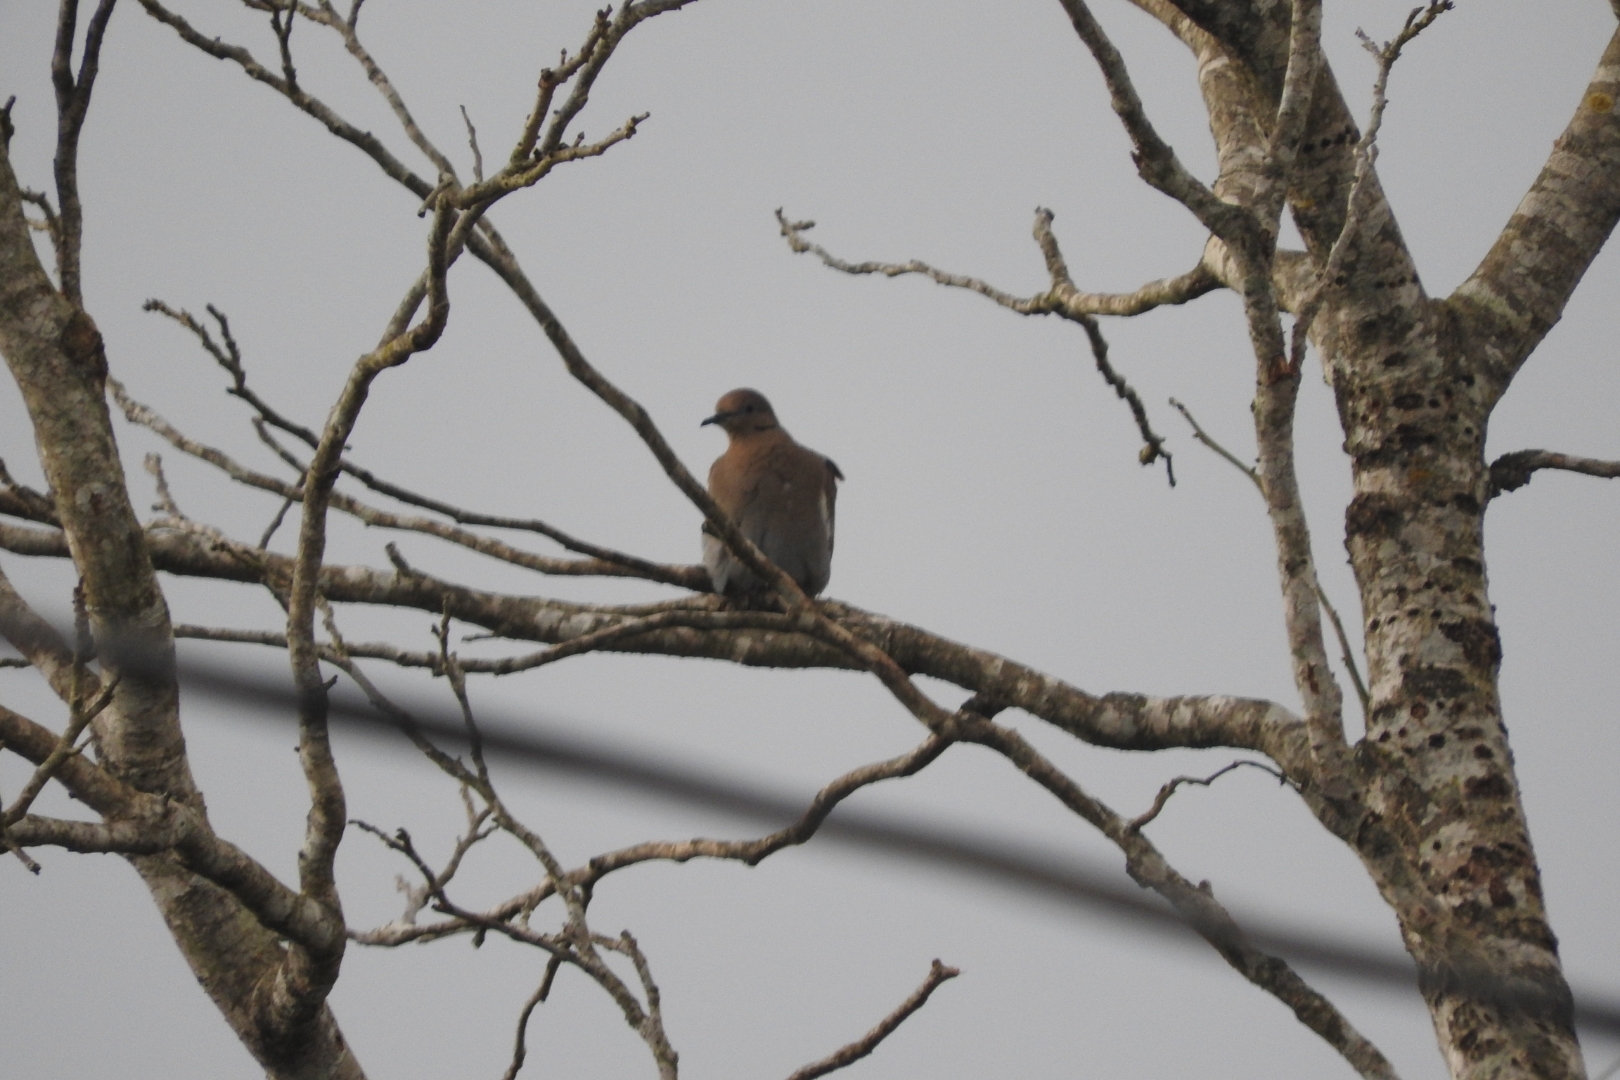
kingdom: Animalia
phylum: Chordata
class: Aves
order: Columbiformes
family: Columbidae
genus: Zenaida
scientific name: Zenaida asiatica
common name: White-winged dove
